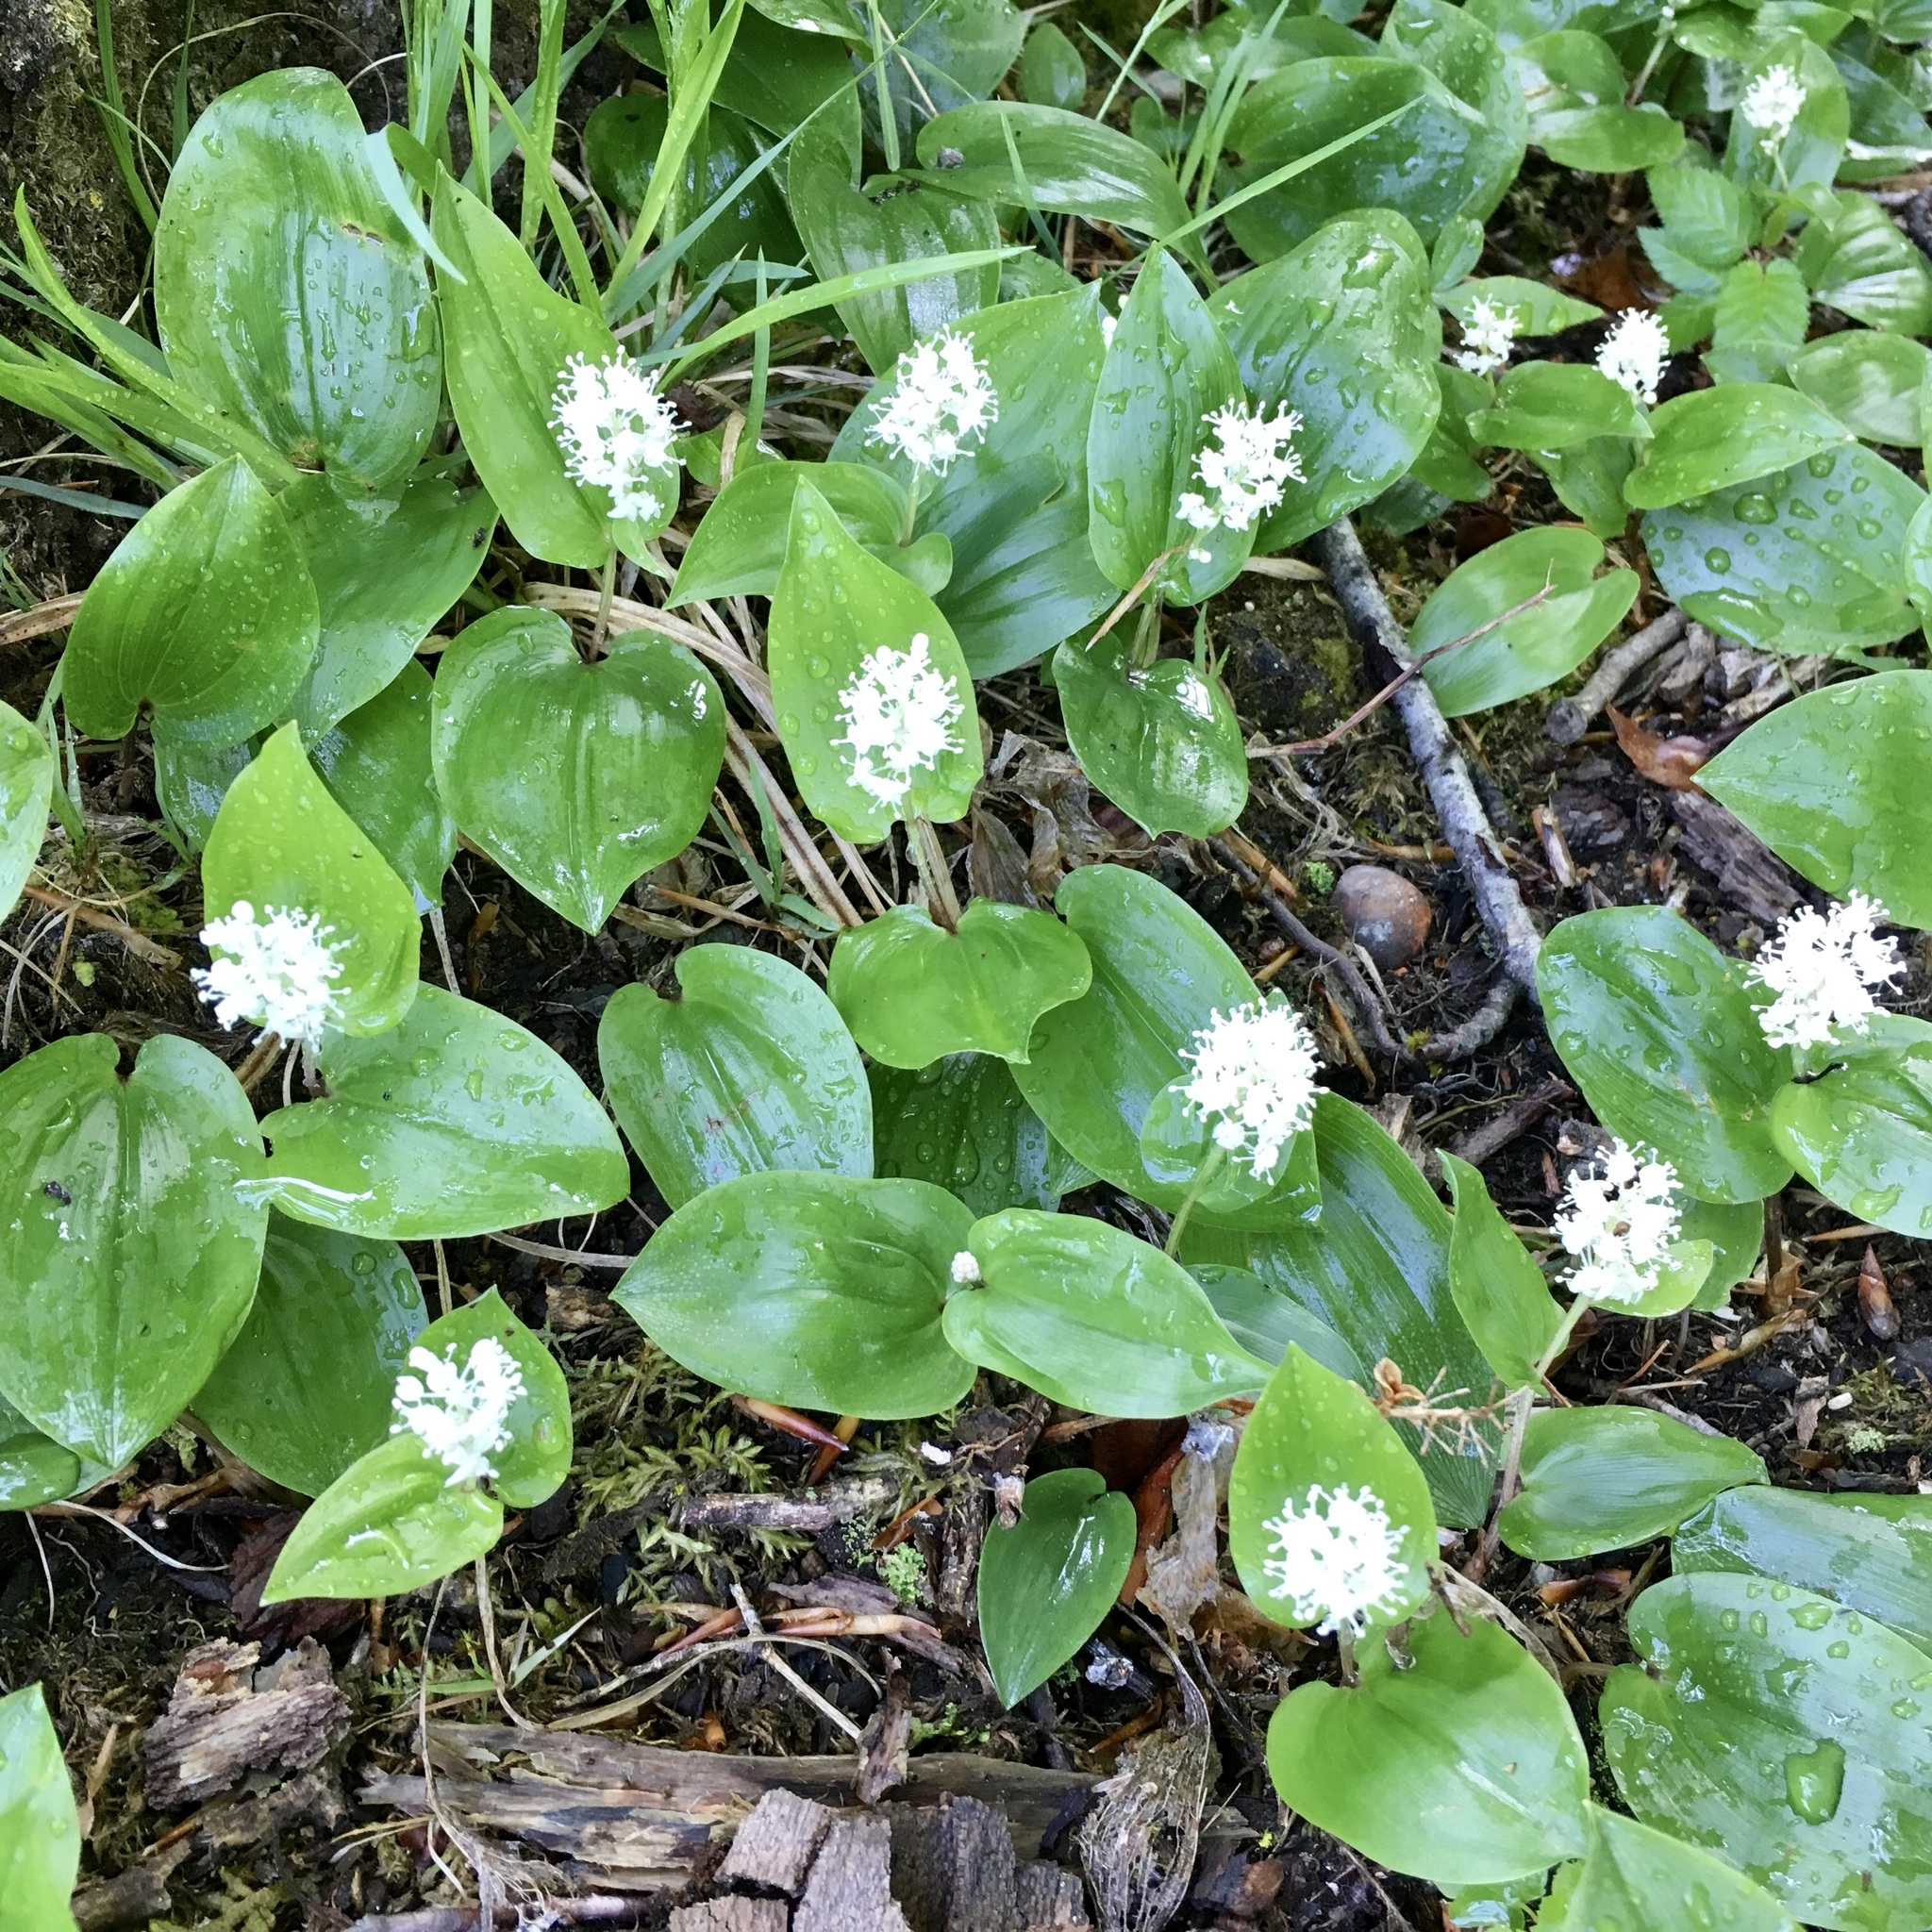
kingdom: Plantae
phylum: Tracheophyta
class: Liliopsida
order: Asparagales
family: Asparagaceae
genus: Maianthemum
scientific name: Maianthemum canadense
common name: False lily-of-the-valley
